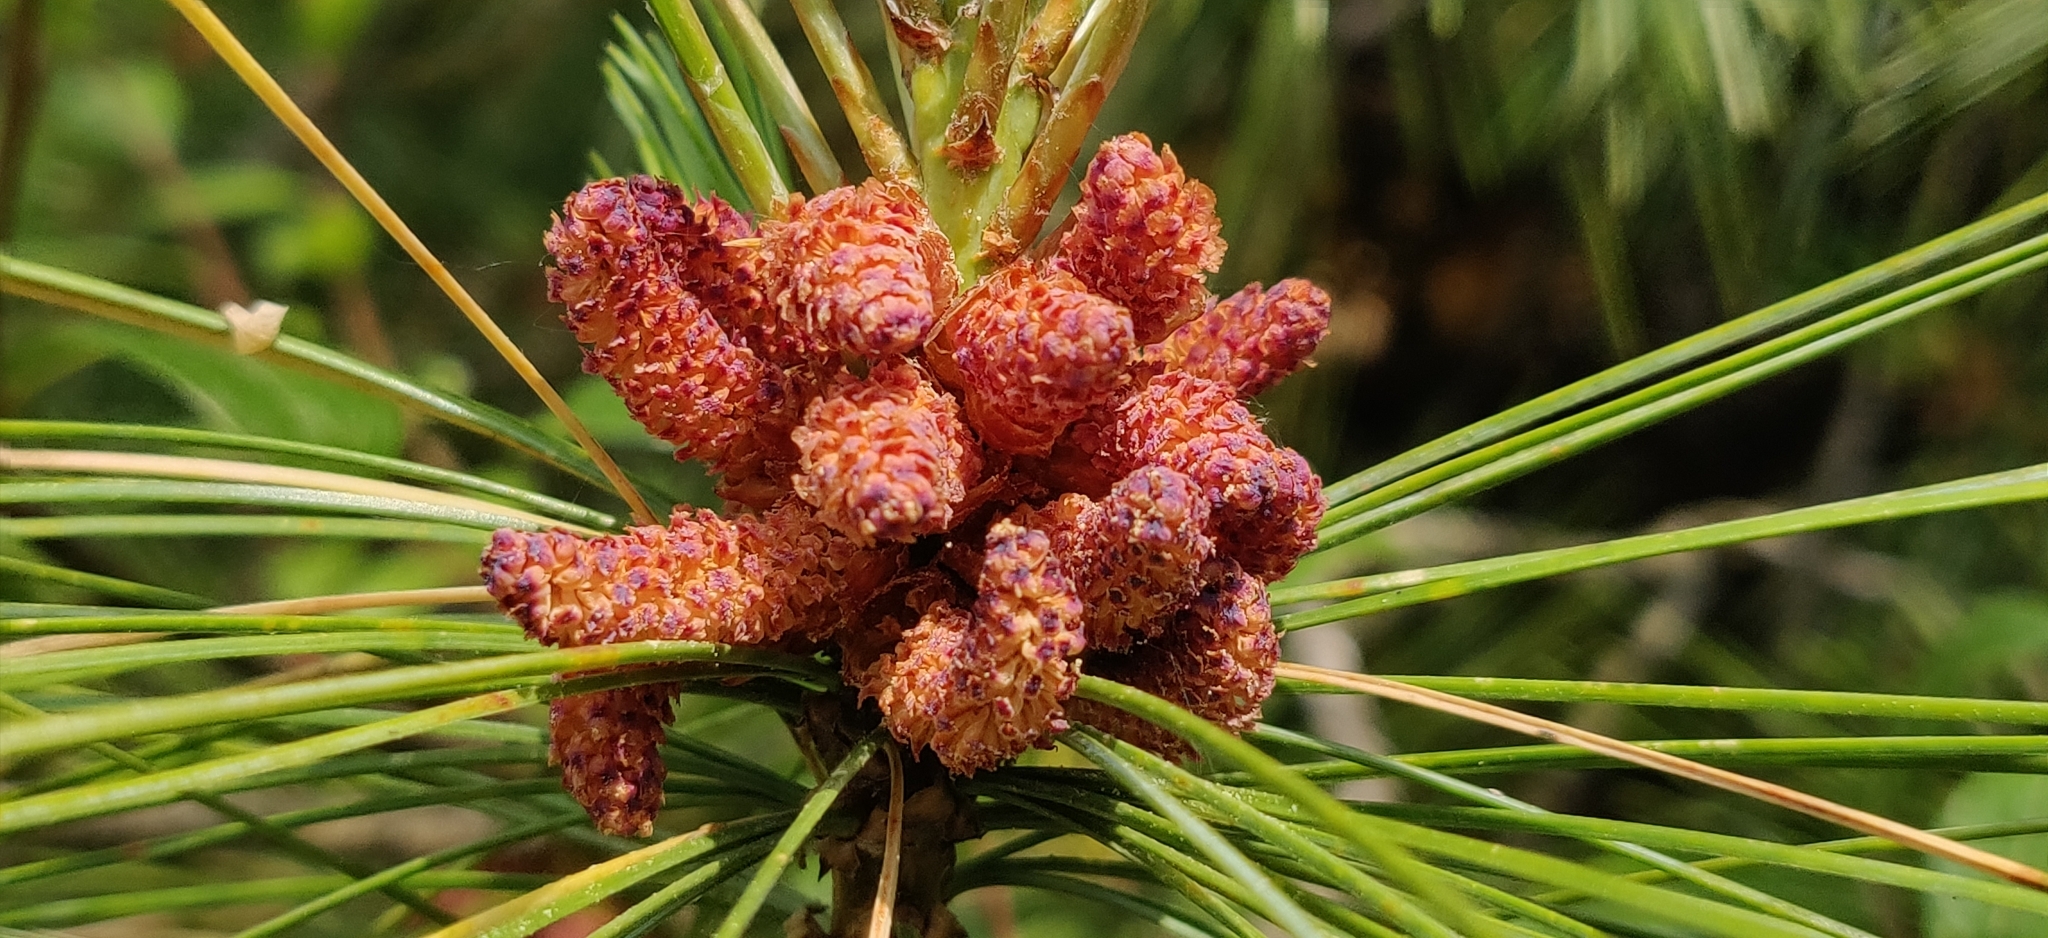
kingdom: Plantae
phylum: Tracheophyta
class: Pinopsida
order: Pinales
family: Pinaceae
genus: Pinus
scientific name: Pinus wallichiana
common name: Bhutan pine
